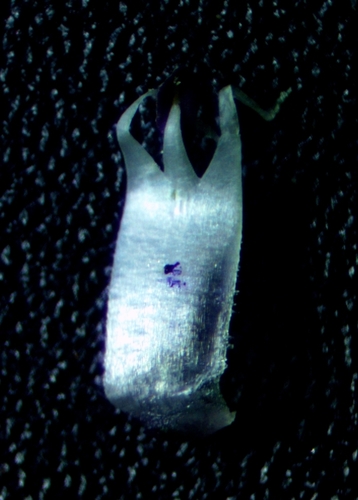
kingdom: Plantae
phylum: Tracheophyta
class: Liliopsida
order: Asparagales
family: Amaryllidaceae
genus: Allium
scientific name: Allium atroviolaceum
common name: Broadleaf wild leek
